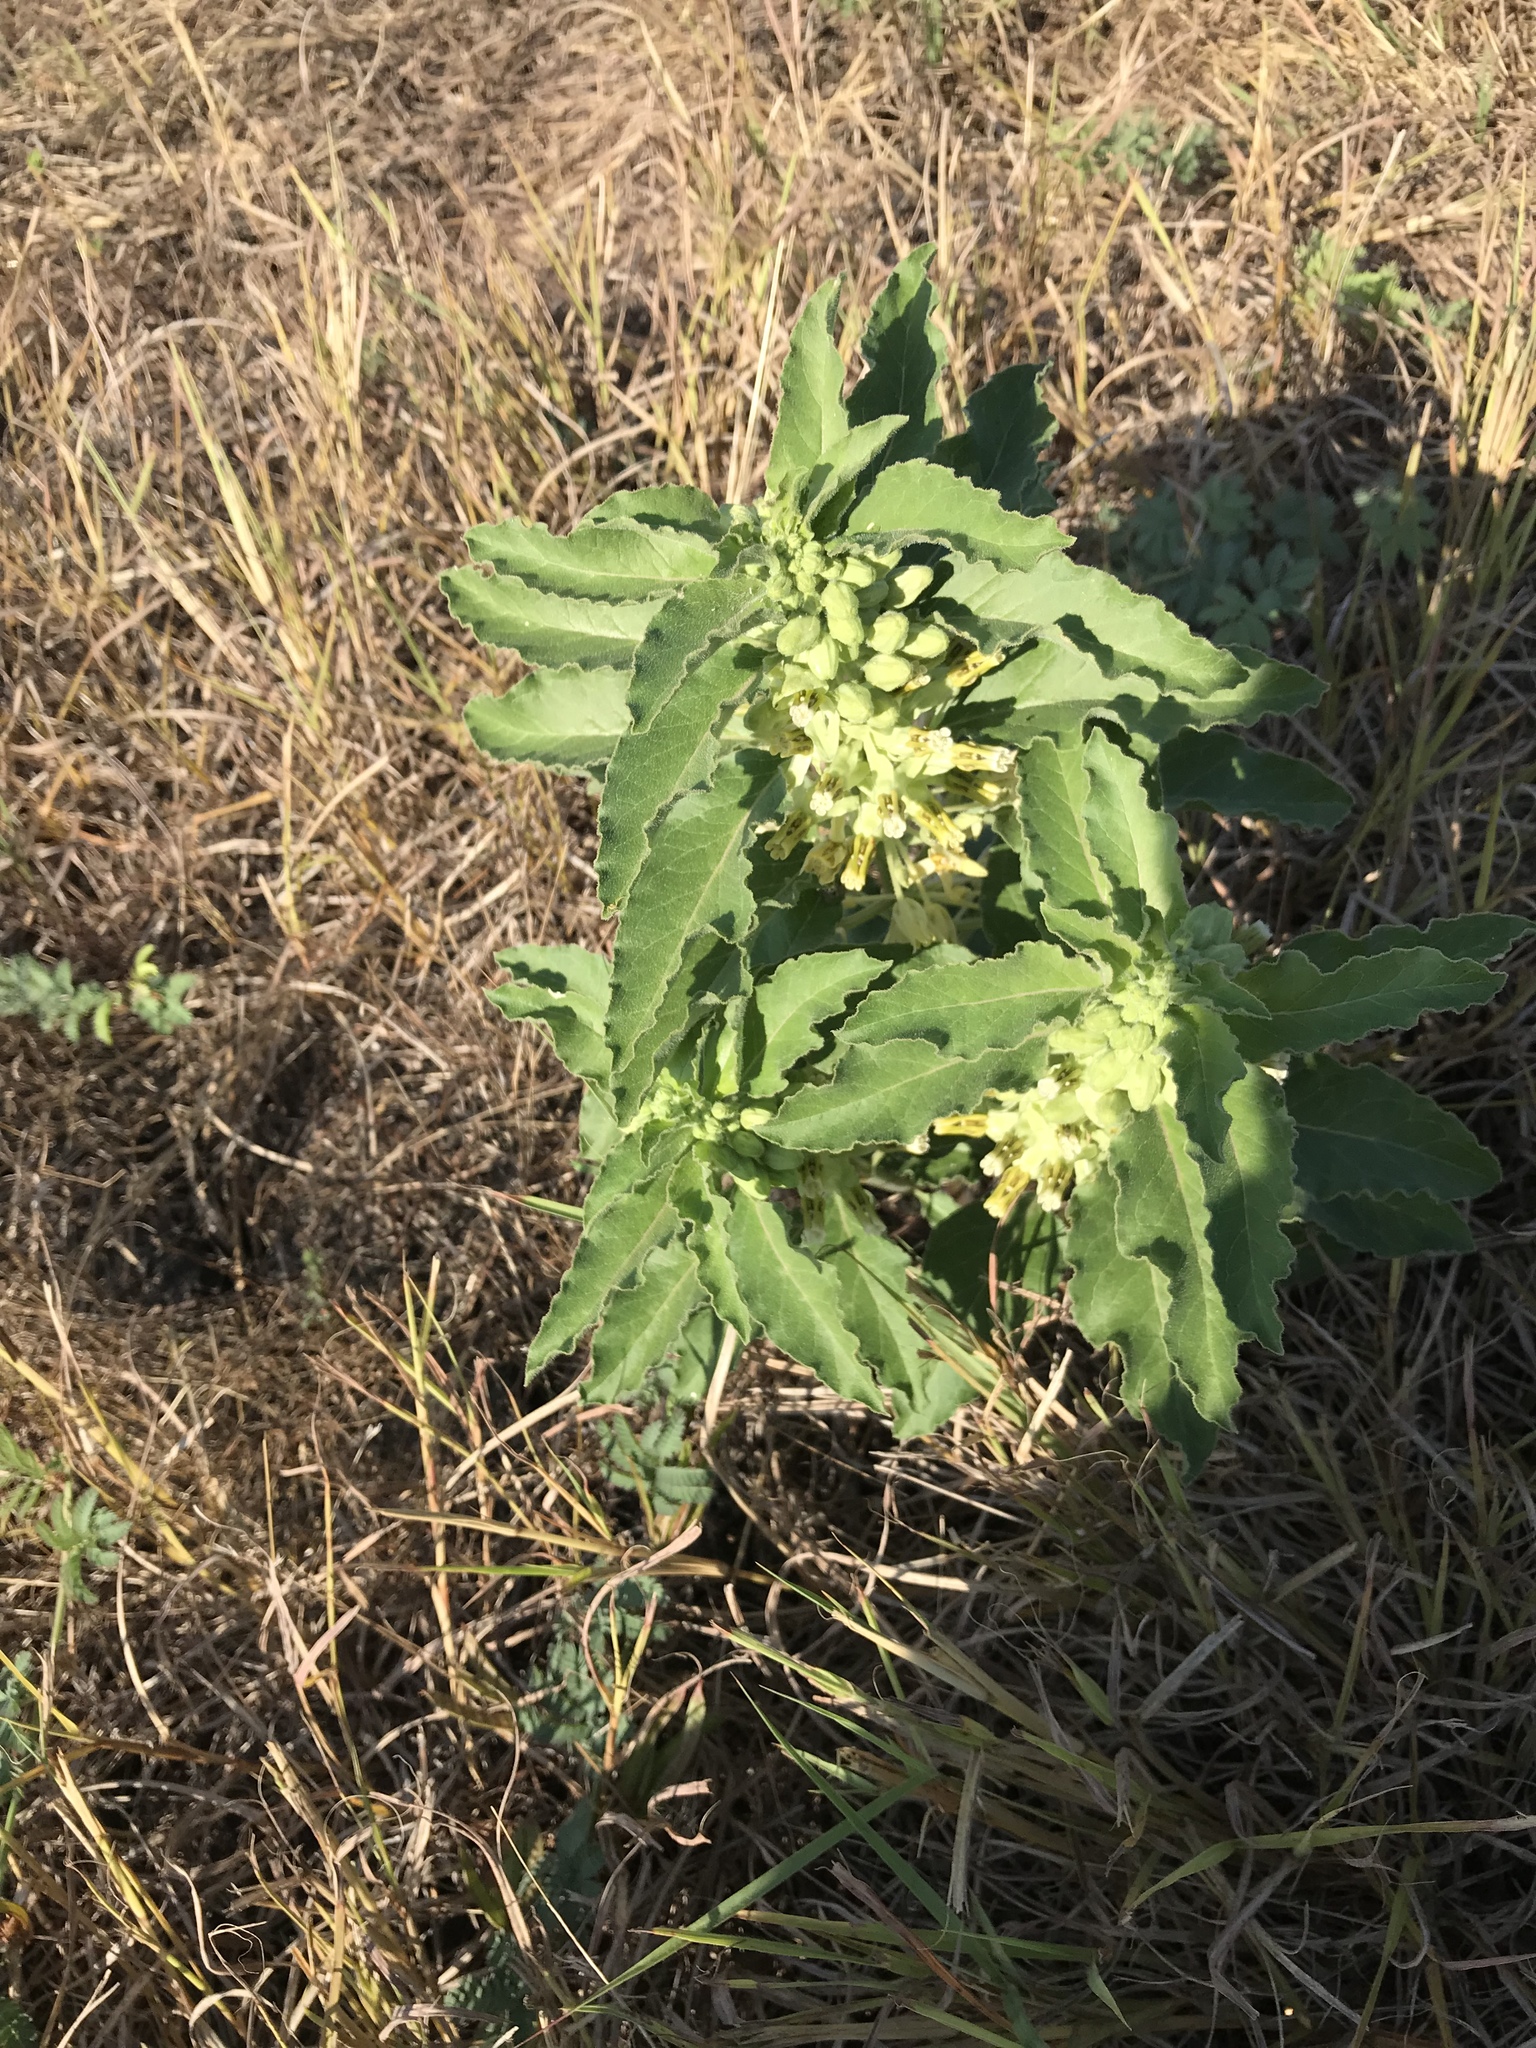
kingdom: Plantae
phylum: Tracheophyta
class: Magnoliopsida
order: Gentianales
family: Apocynaceae
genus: Asclepias
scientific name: Asclepias oenotheroides
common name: Zizotes milkweed
